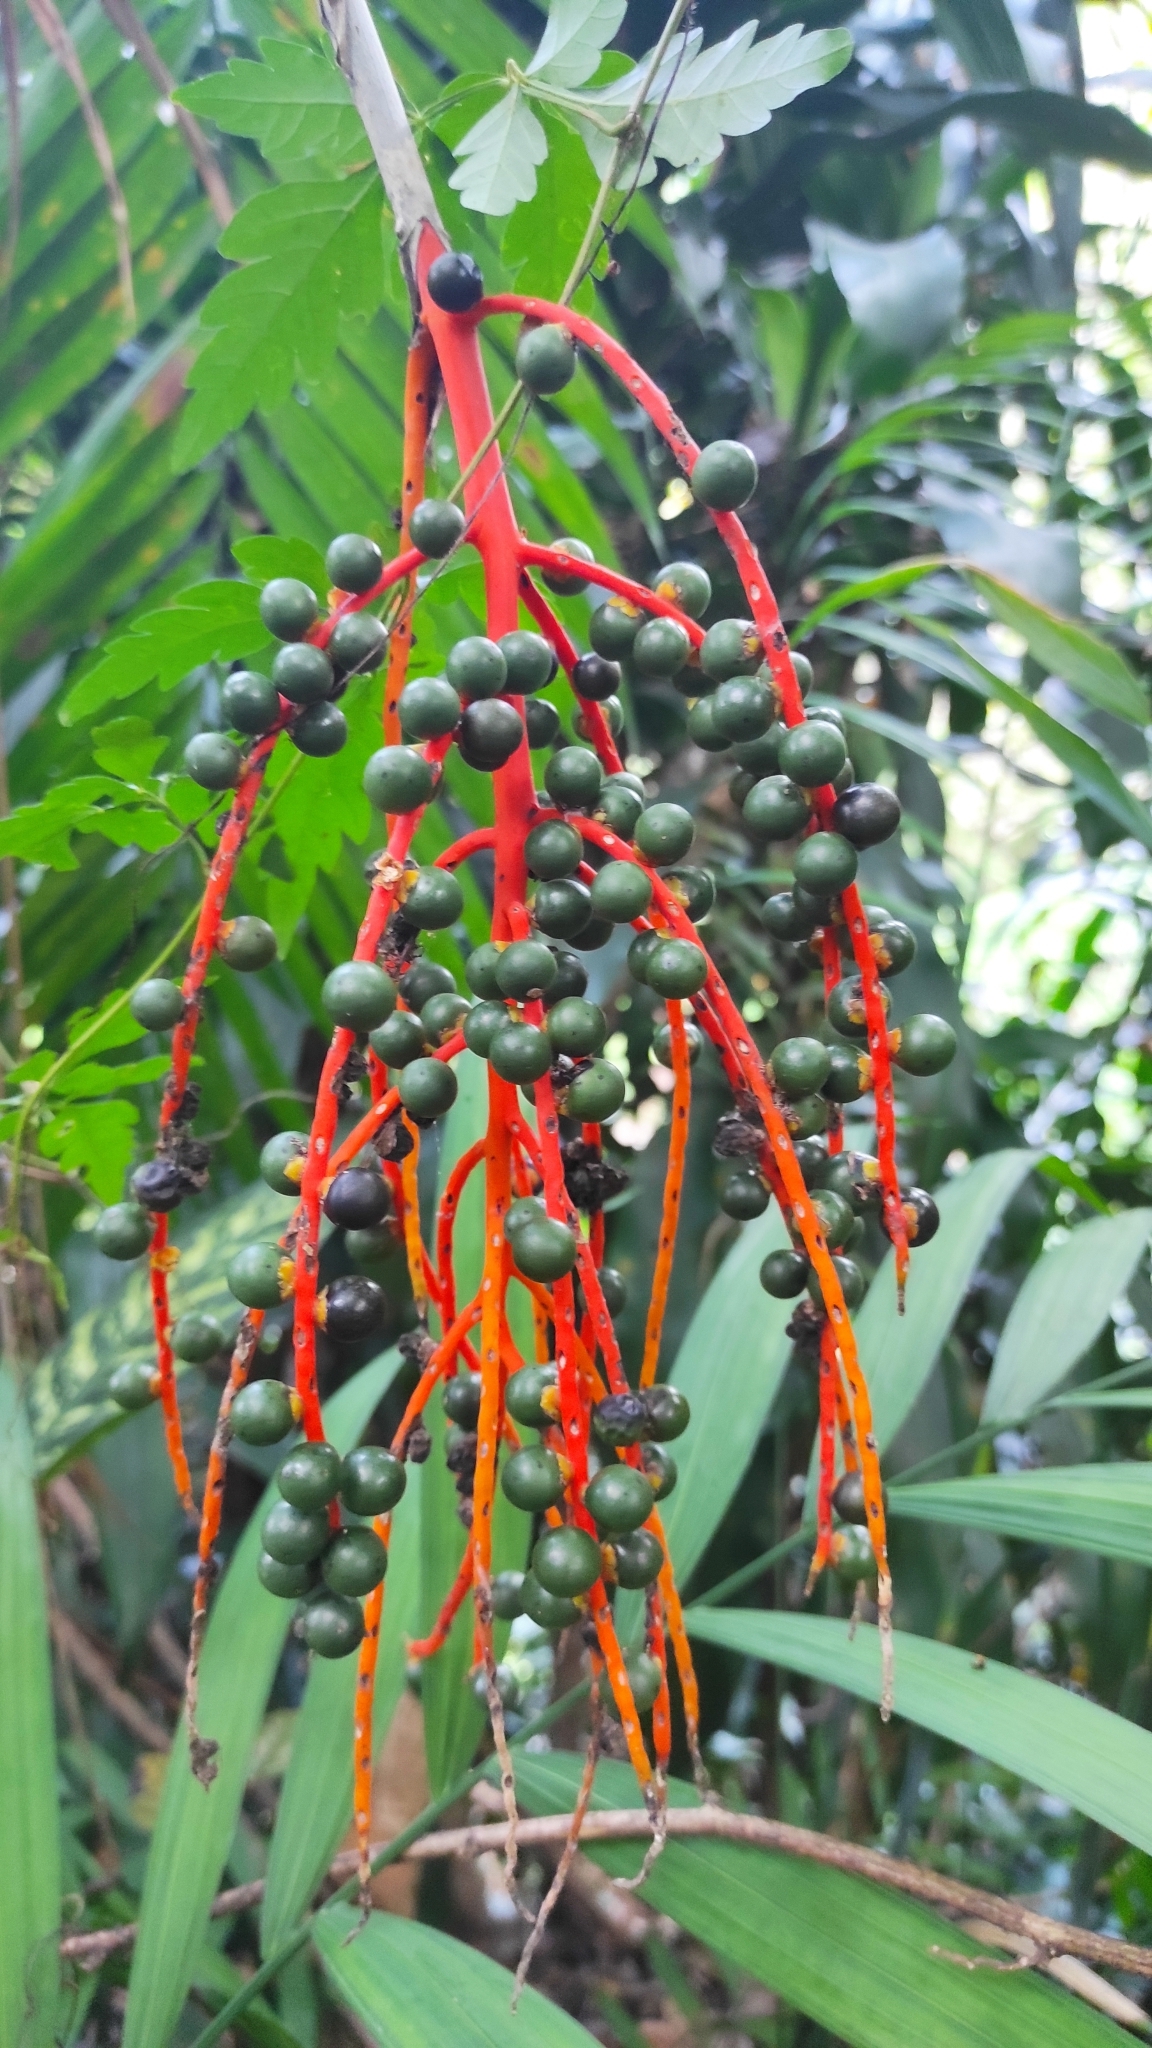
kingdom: Plantae
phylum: Tracheophyta
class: Liliopsida
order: Arecales
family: Arecaceae
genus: Chamaedorea
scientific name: Chamaedorea tepejilote
